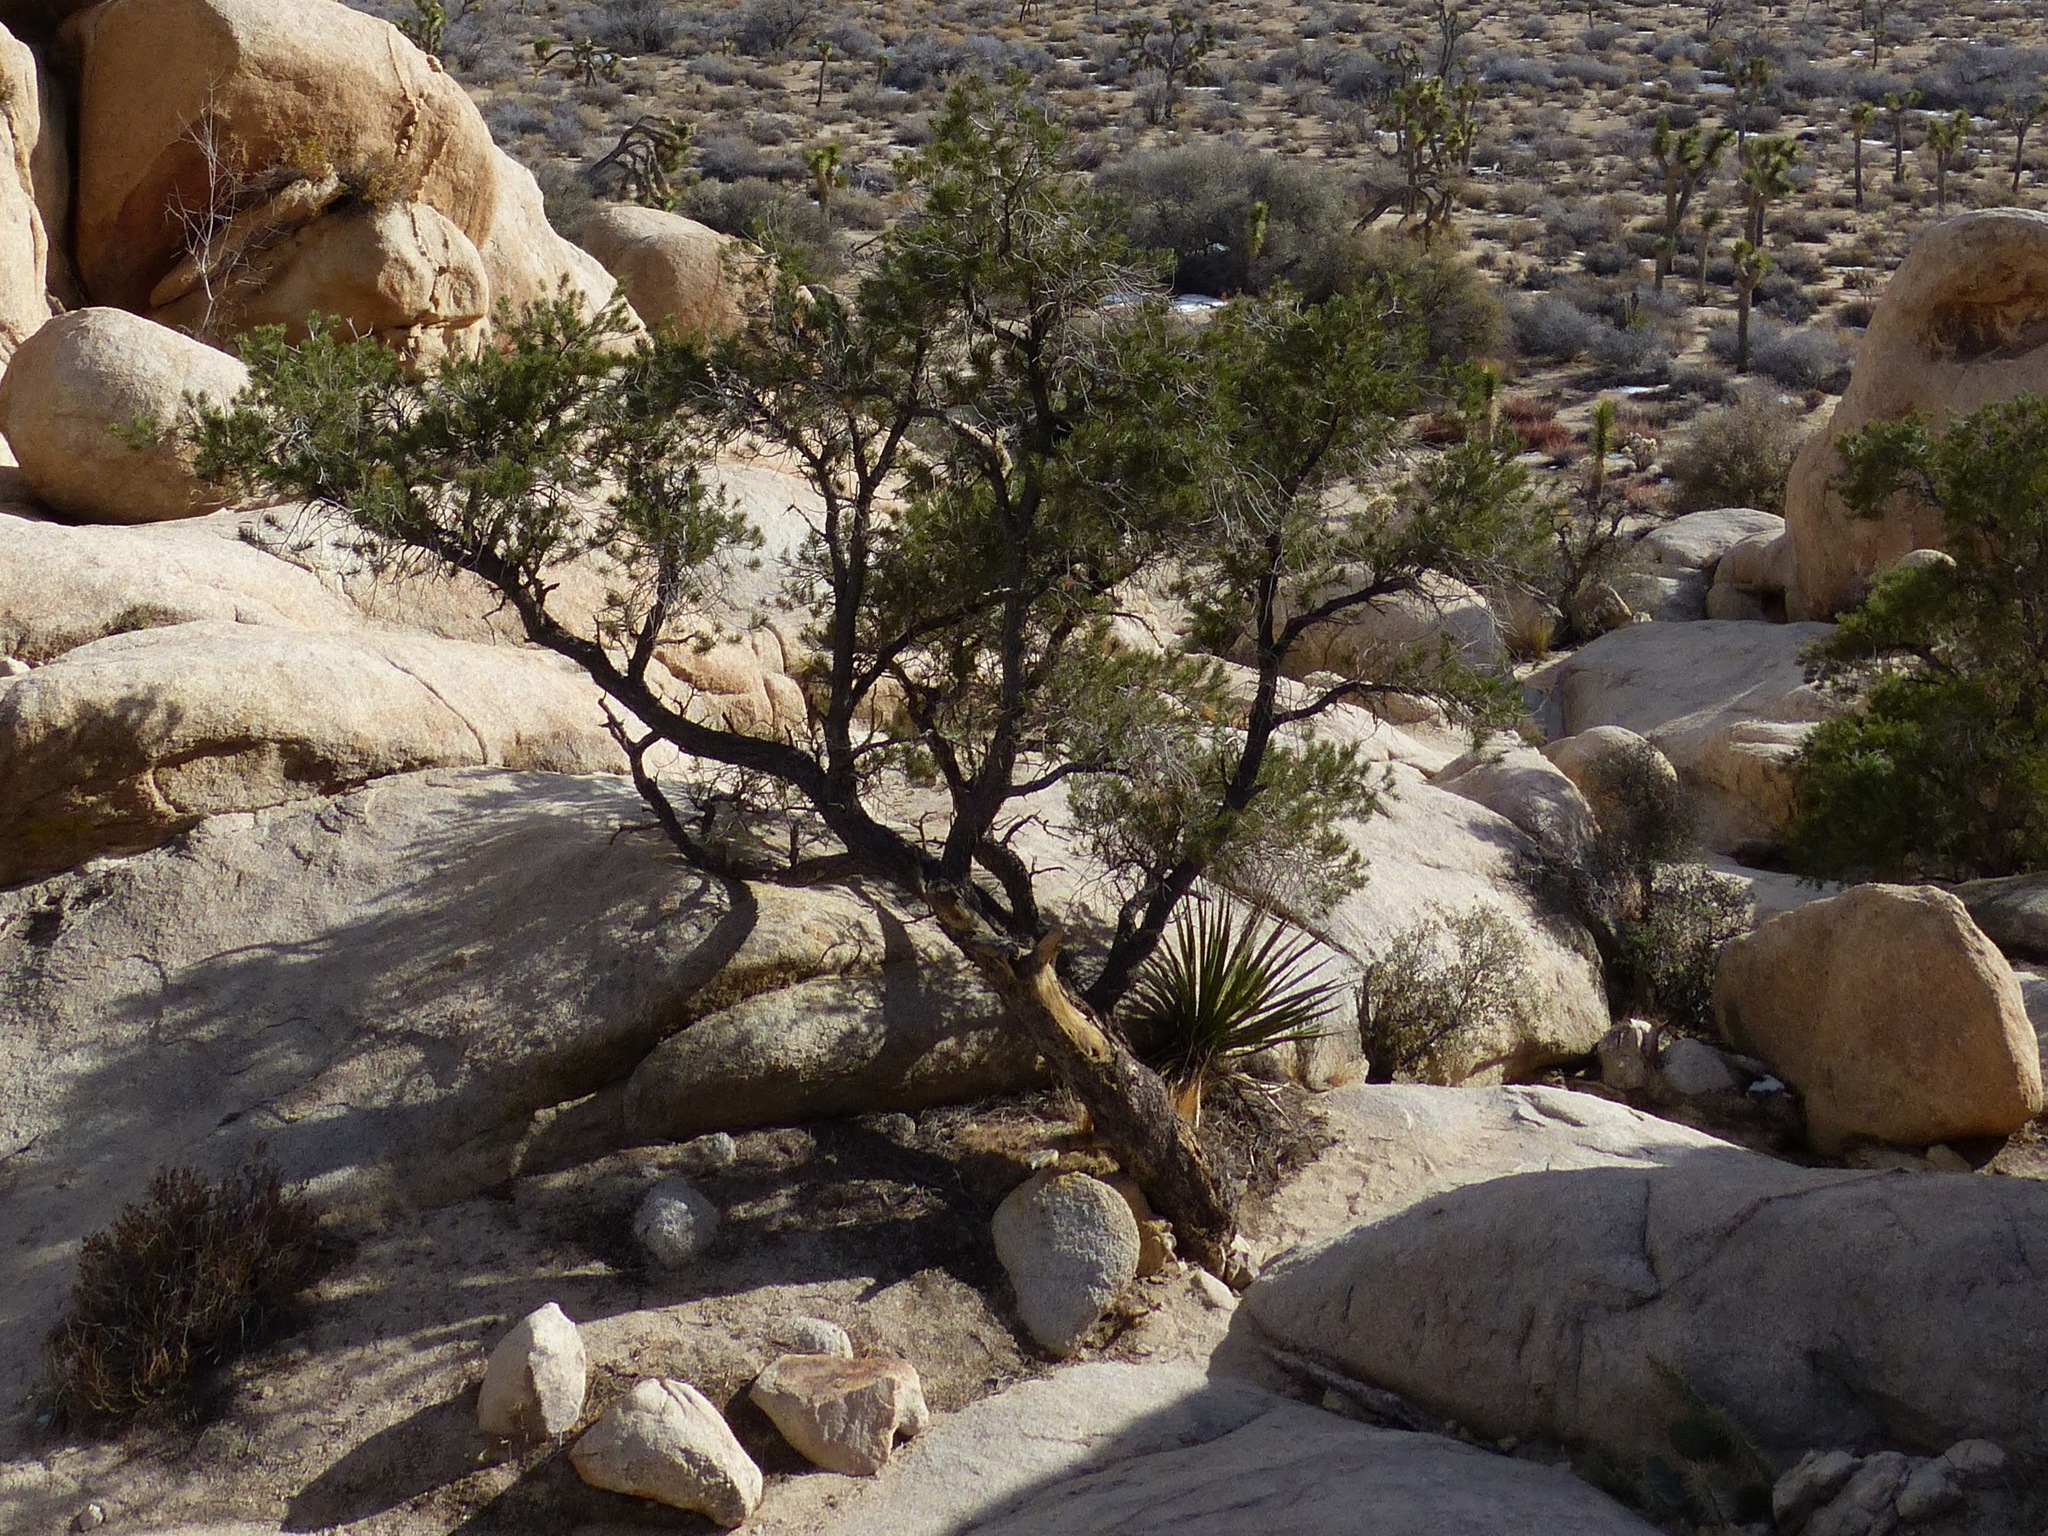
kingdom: Plantae
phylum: Tracheophyta
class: Pinopsida
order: Pinales
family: Pinaceae
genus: Pinus
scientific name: Pinus monophylla
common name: One-leaved nut pine
